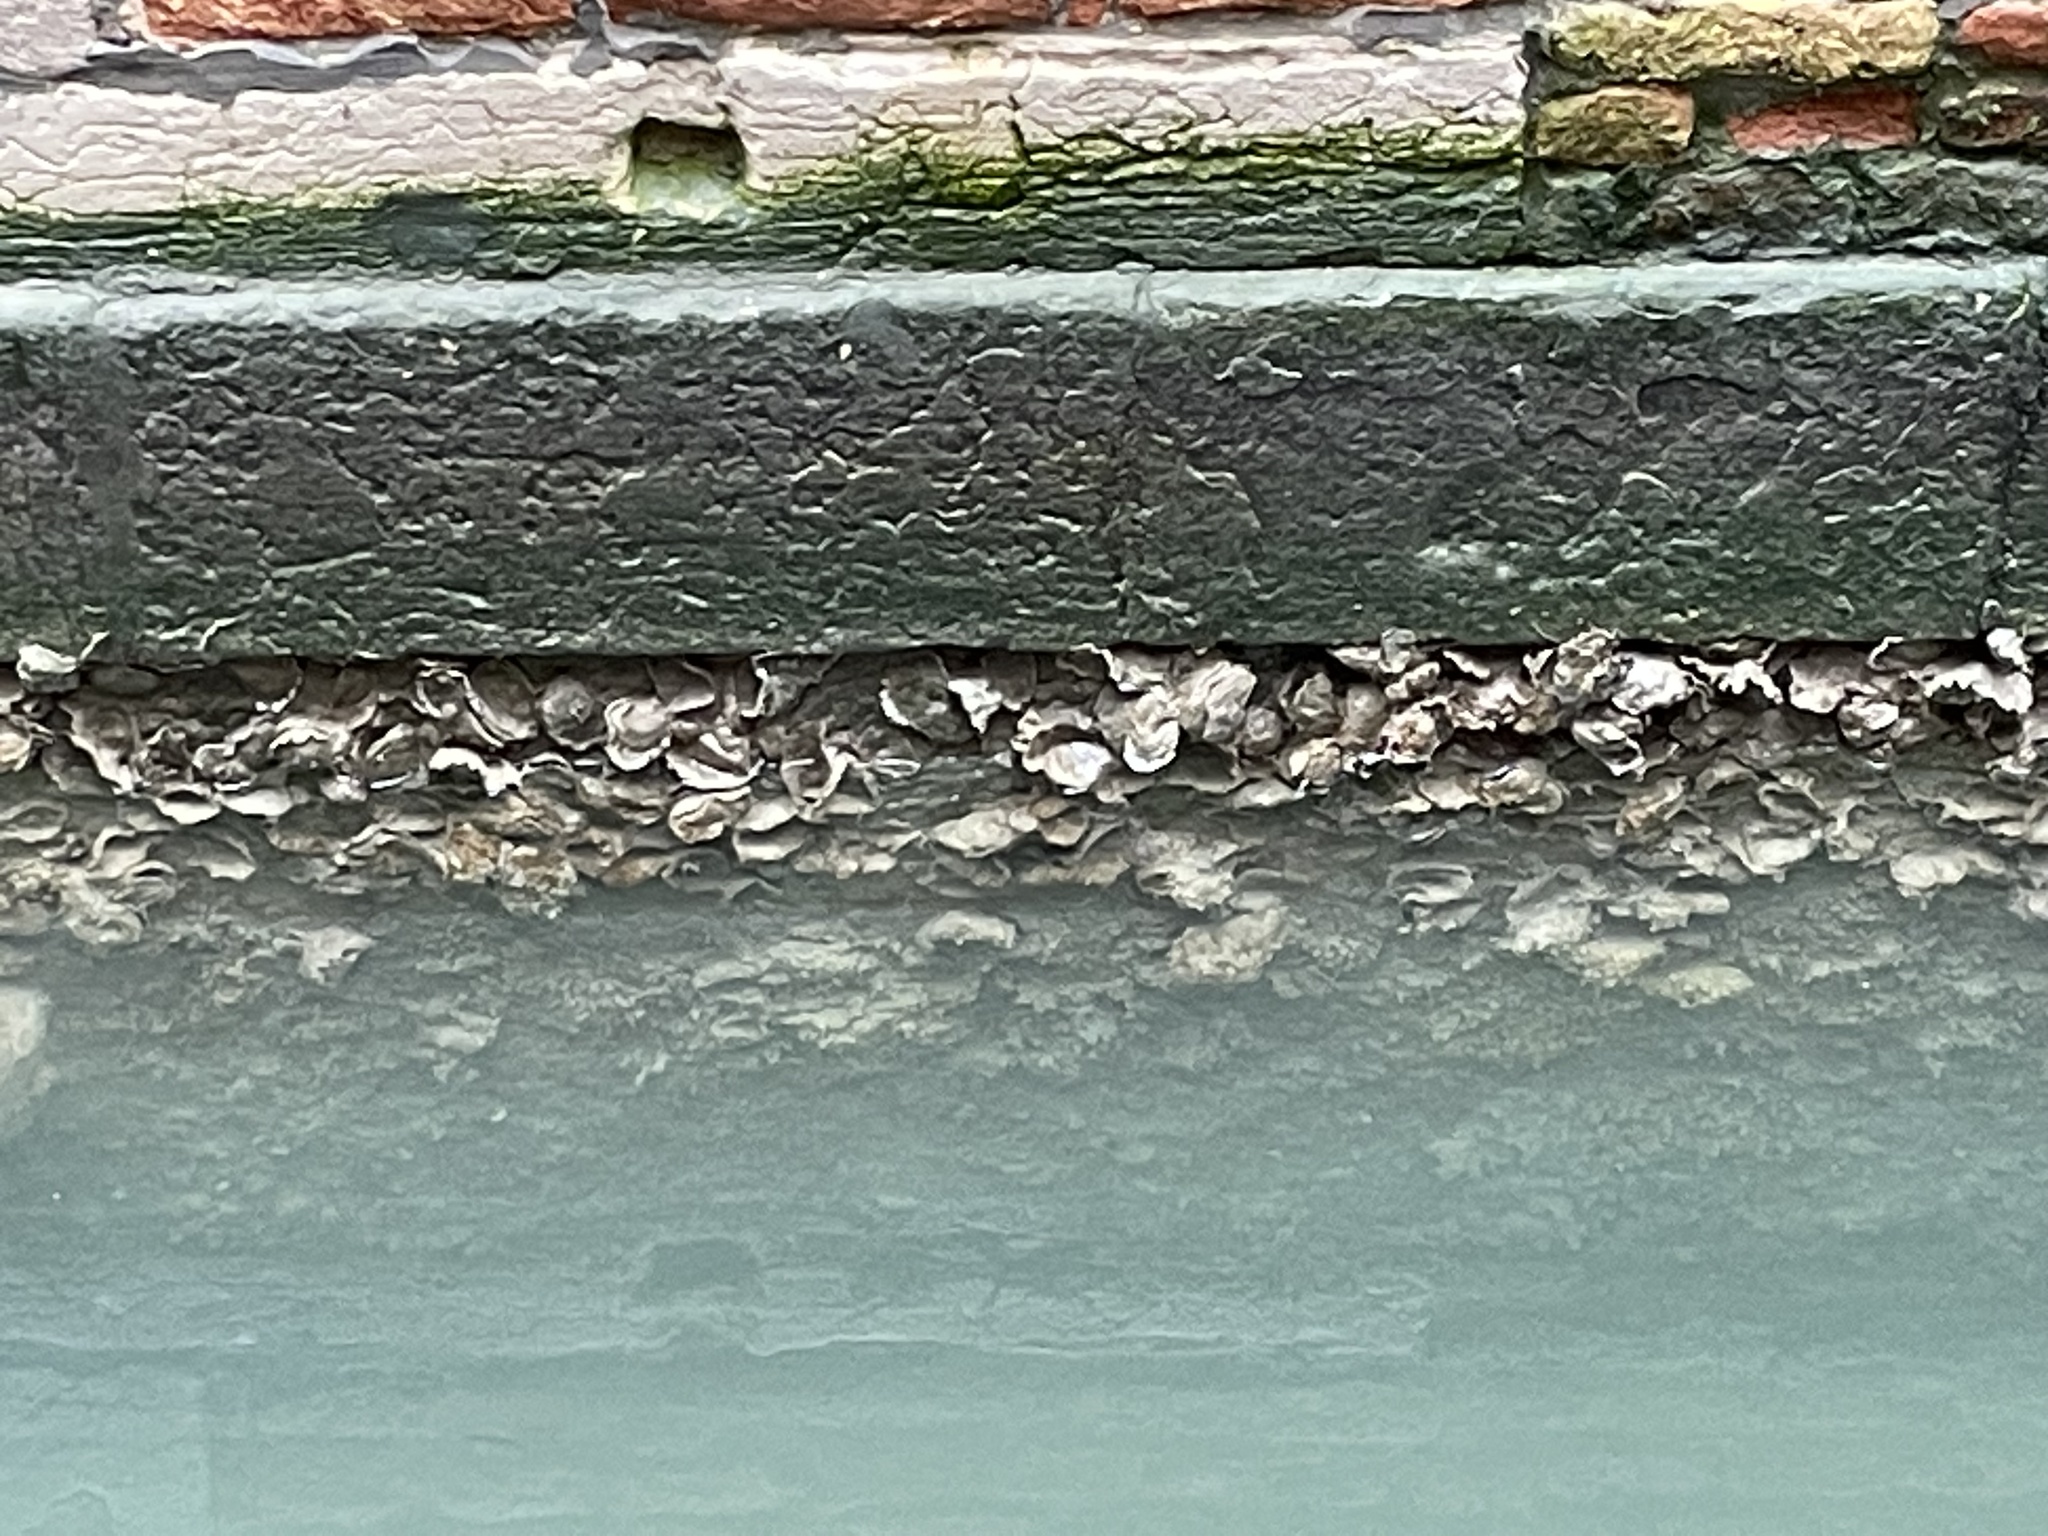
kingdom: Animalia
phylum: Mollusca
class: Bivalvia
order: Ostreida
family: Ostreidae
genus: Magallana
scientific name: Magallana gigas
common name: Pacific oyster
